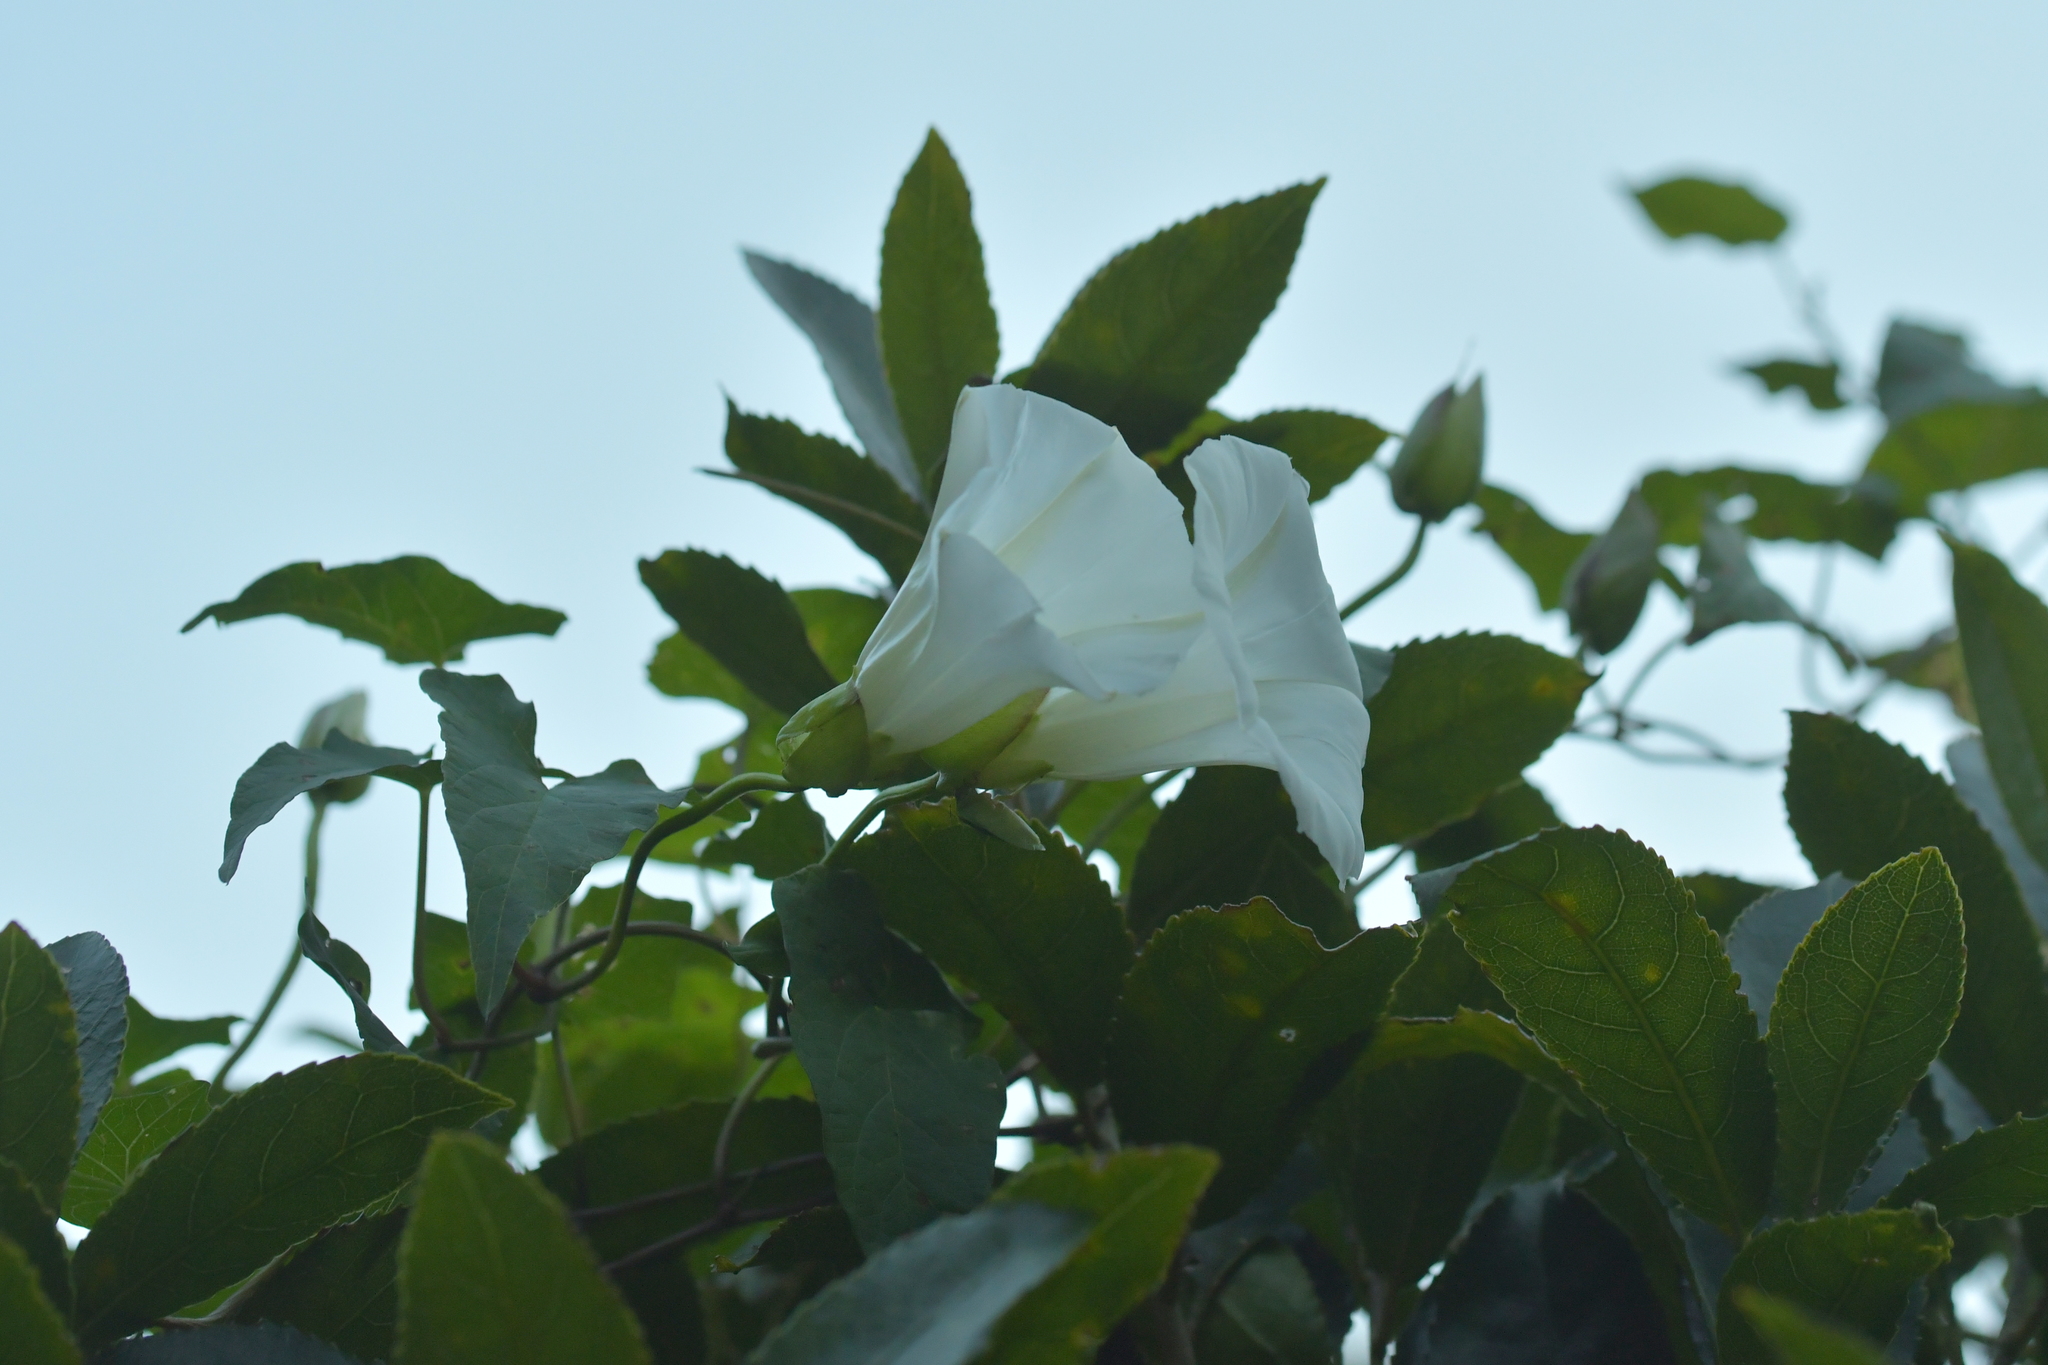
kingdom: Plantae
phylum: Tracheophyta
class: Magnoliopsida
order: Solanales
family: Convolvulaceae
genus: Calystegia
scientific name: Calystegia silvatica
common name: Large bindweed
